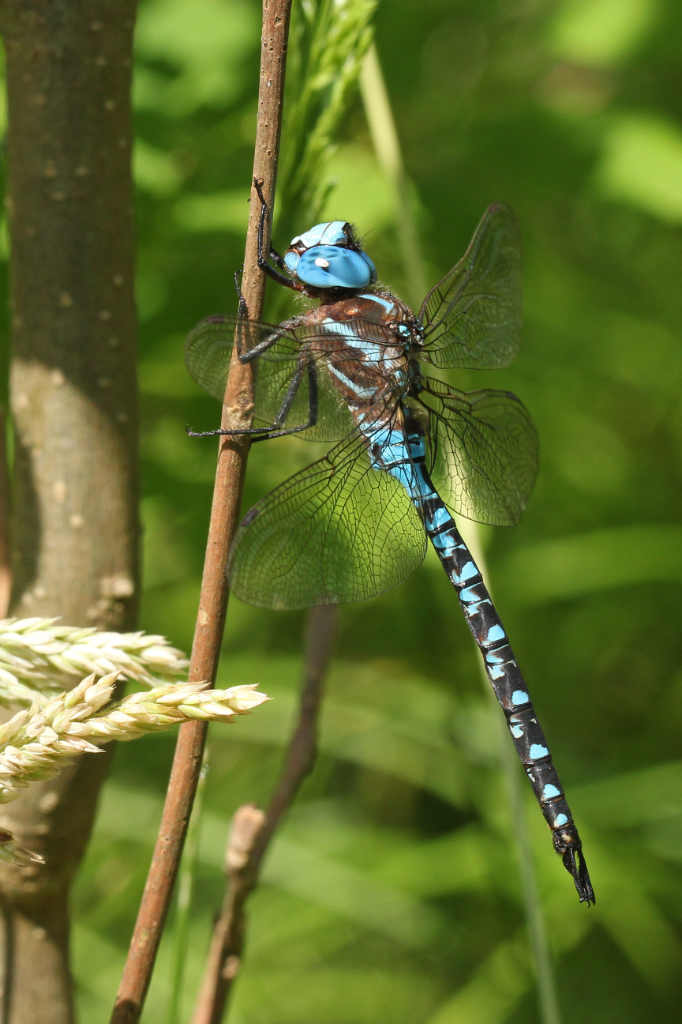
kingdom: Animalia
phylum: Arthropoda
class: Insecta
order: Odonata
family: Aeshnidae
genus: Rhionaeschna
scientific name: Rhionaeschna mutata
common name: Spatterdock darner
